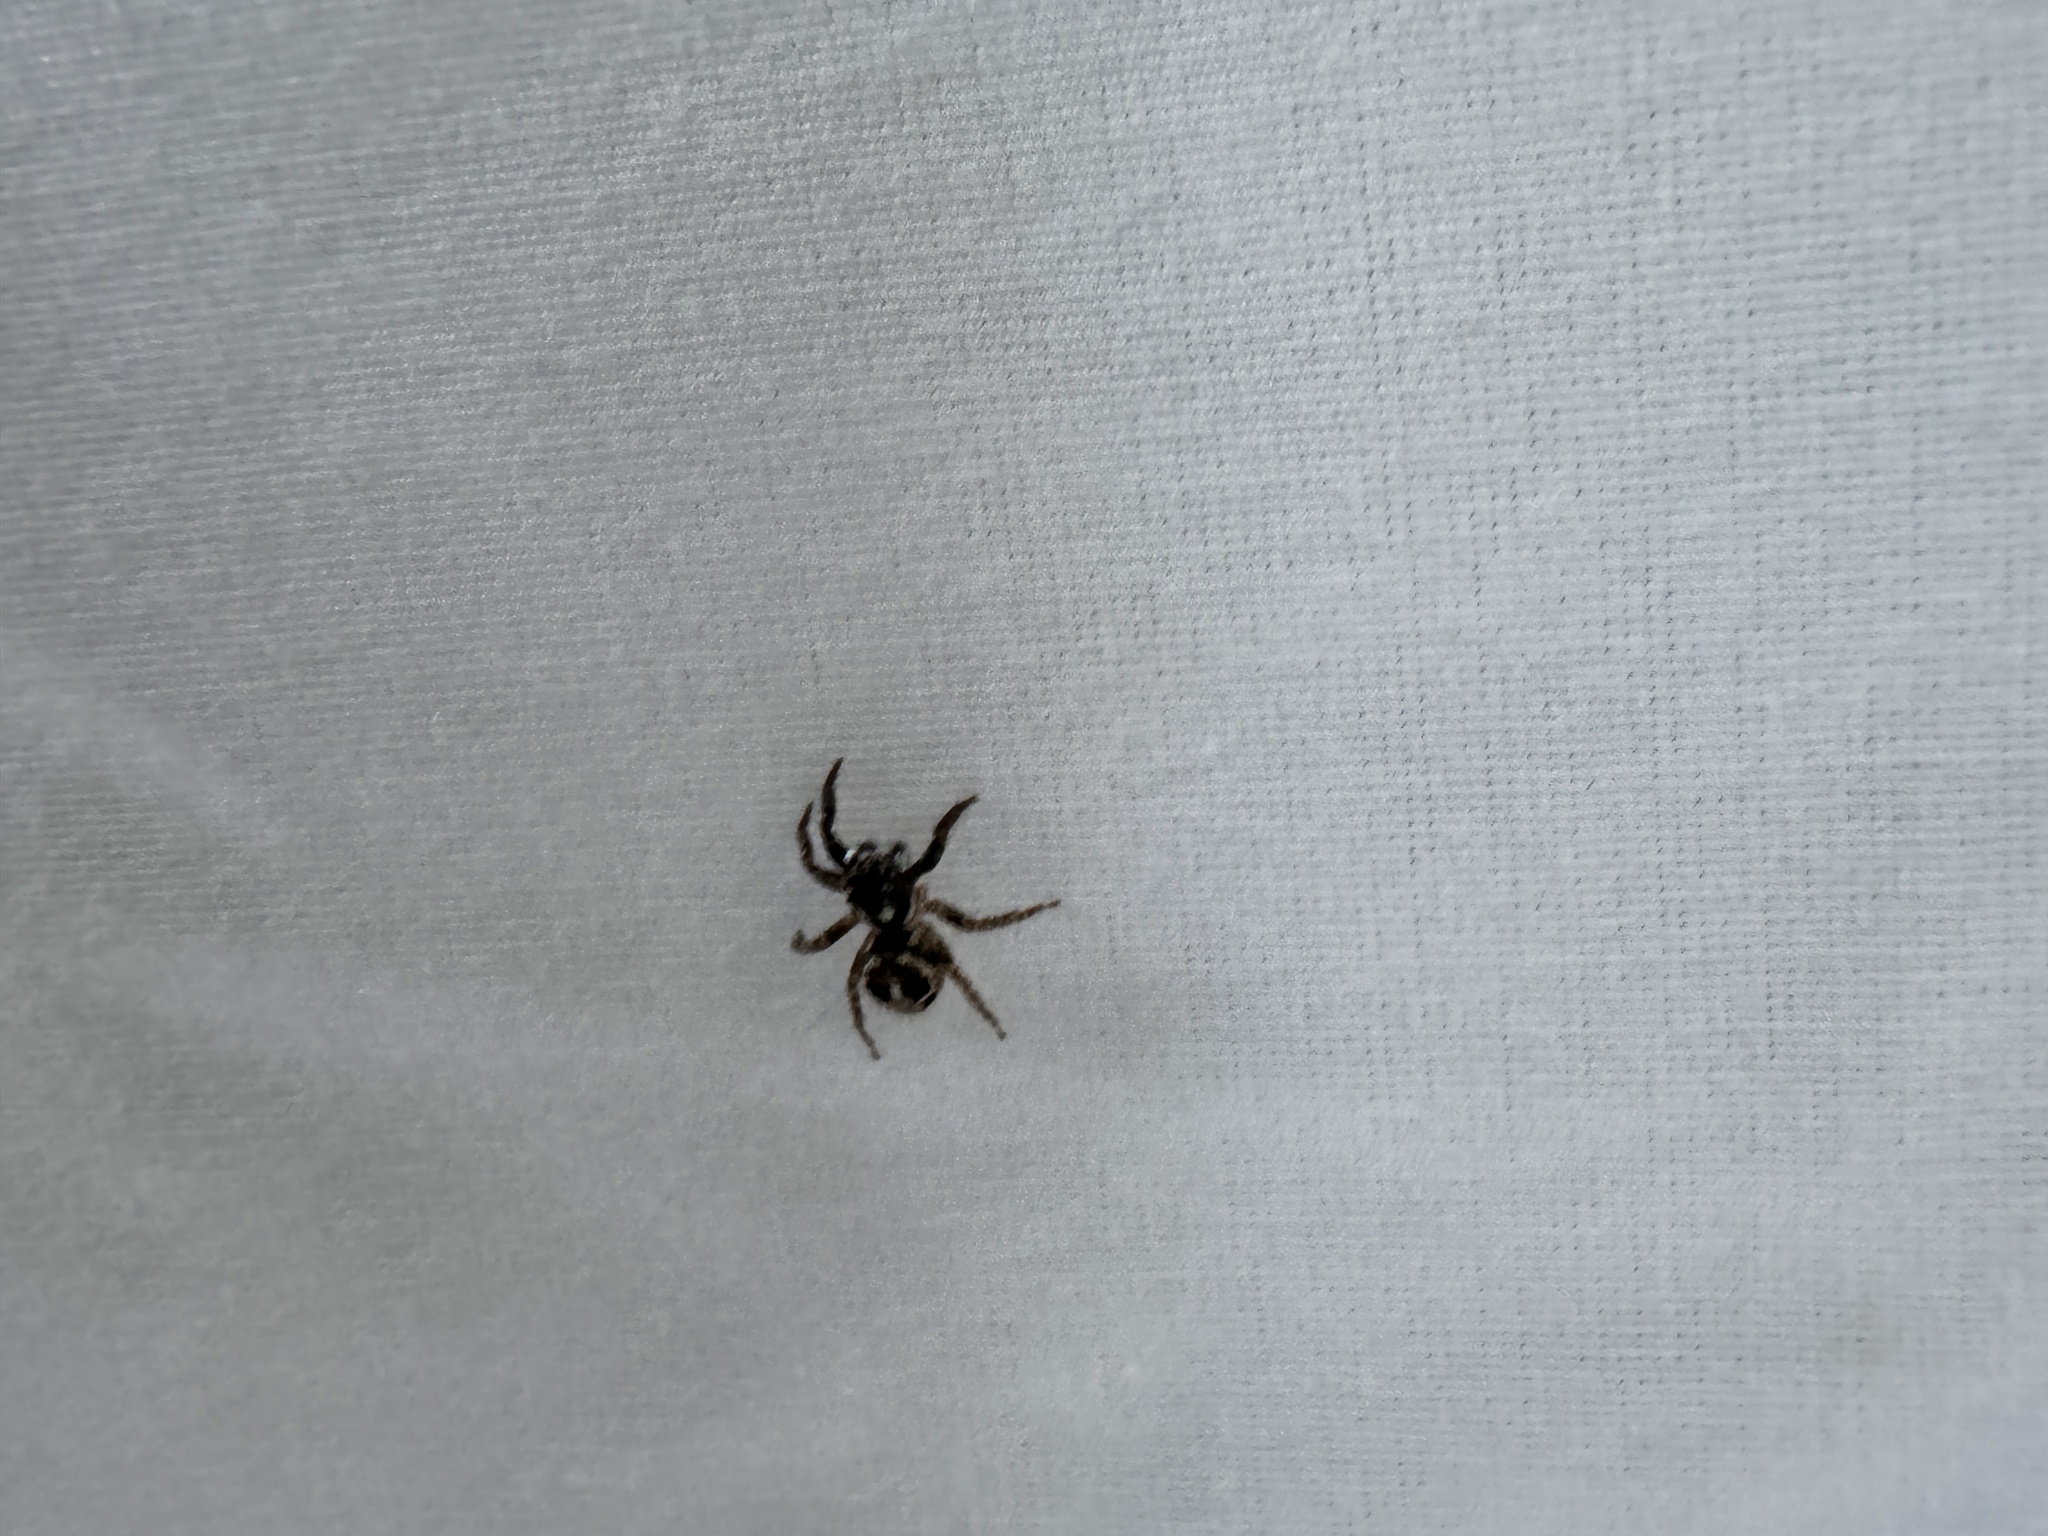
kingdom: Animalia
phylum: Arthropoda
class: Arachnida
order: Araneae
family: Salticidae
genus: Anasaitis
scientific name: Anasaitis canosa
